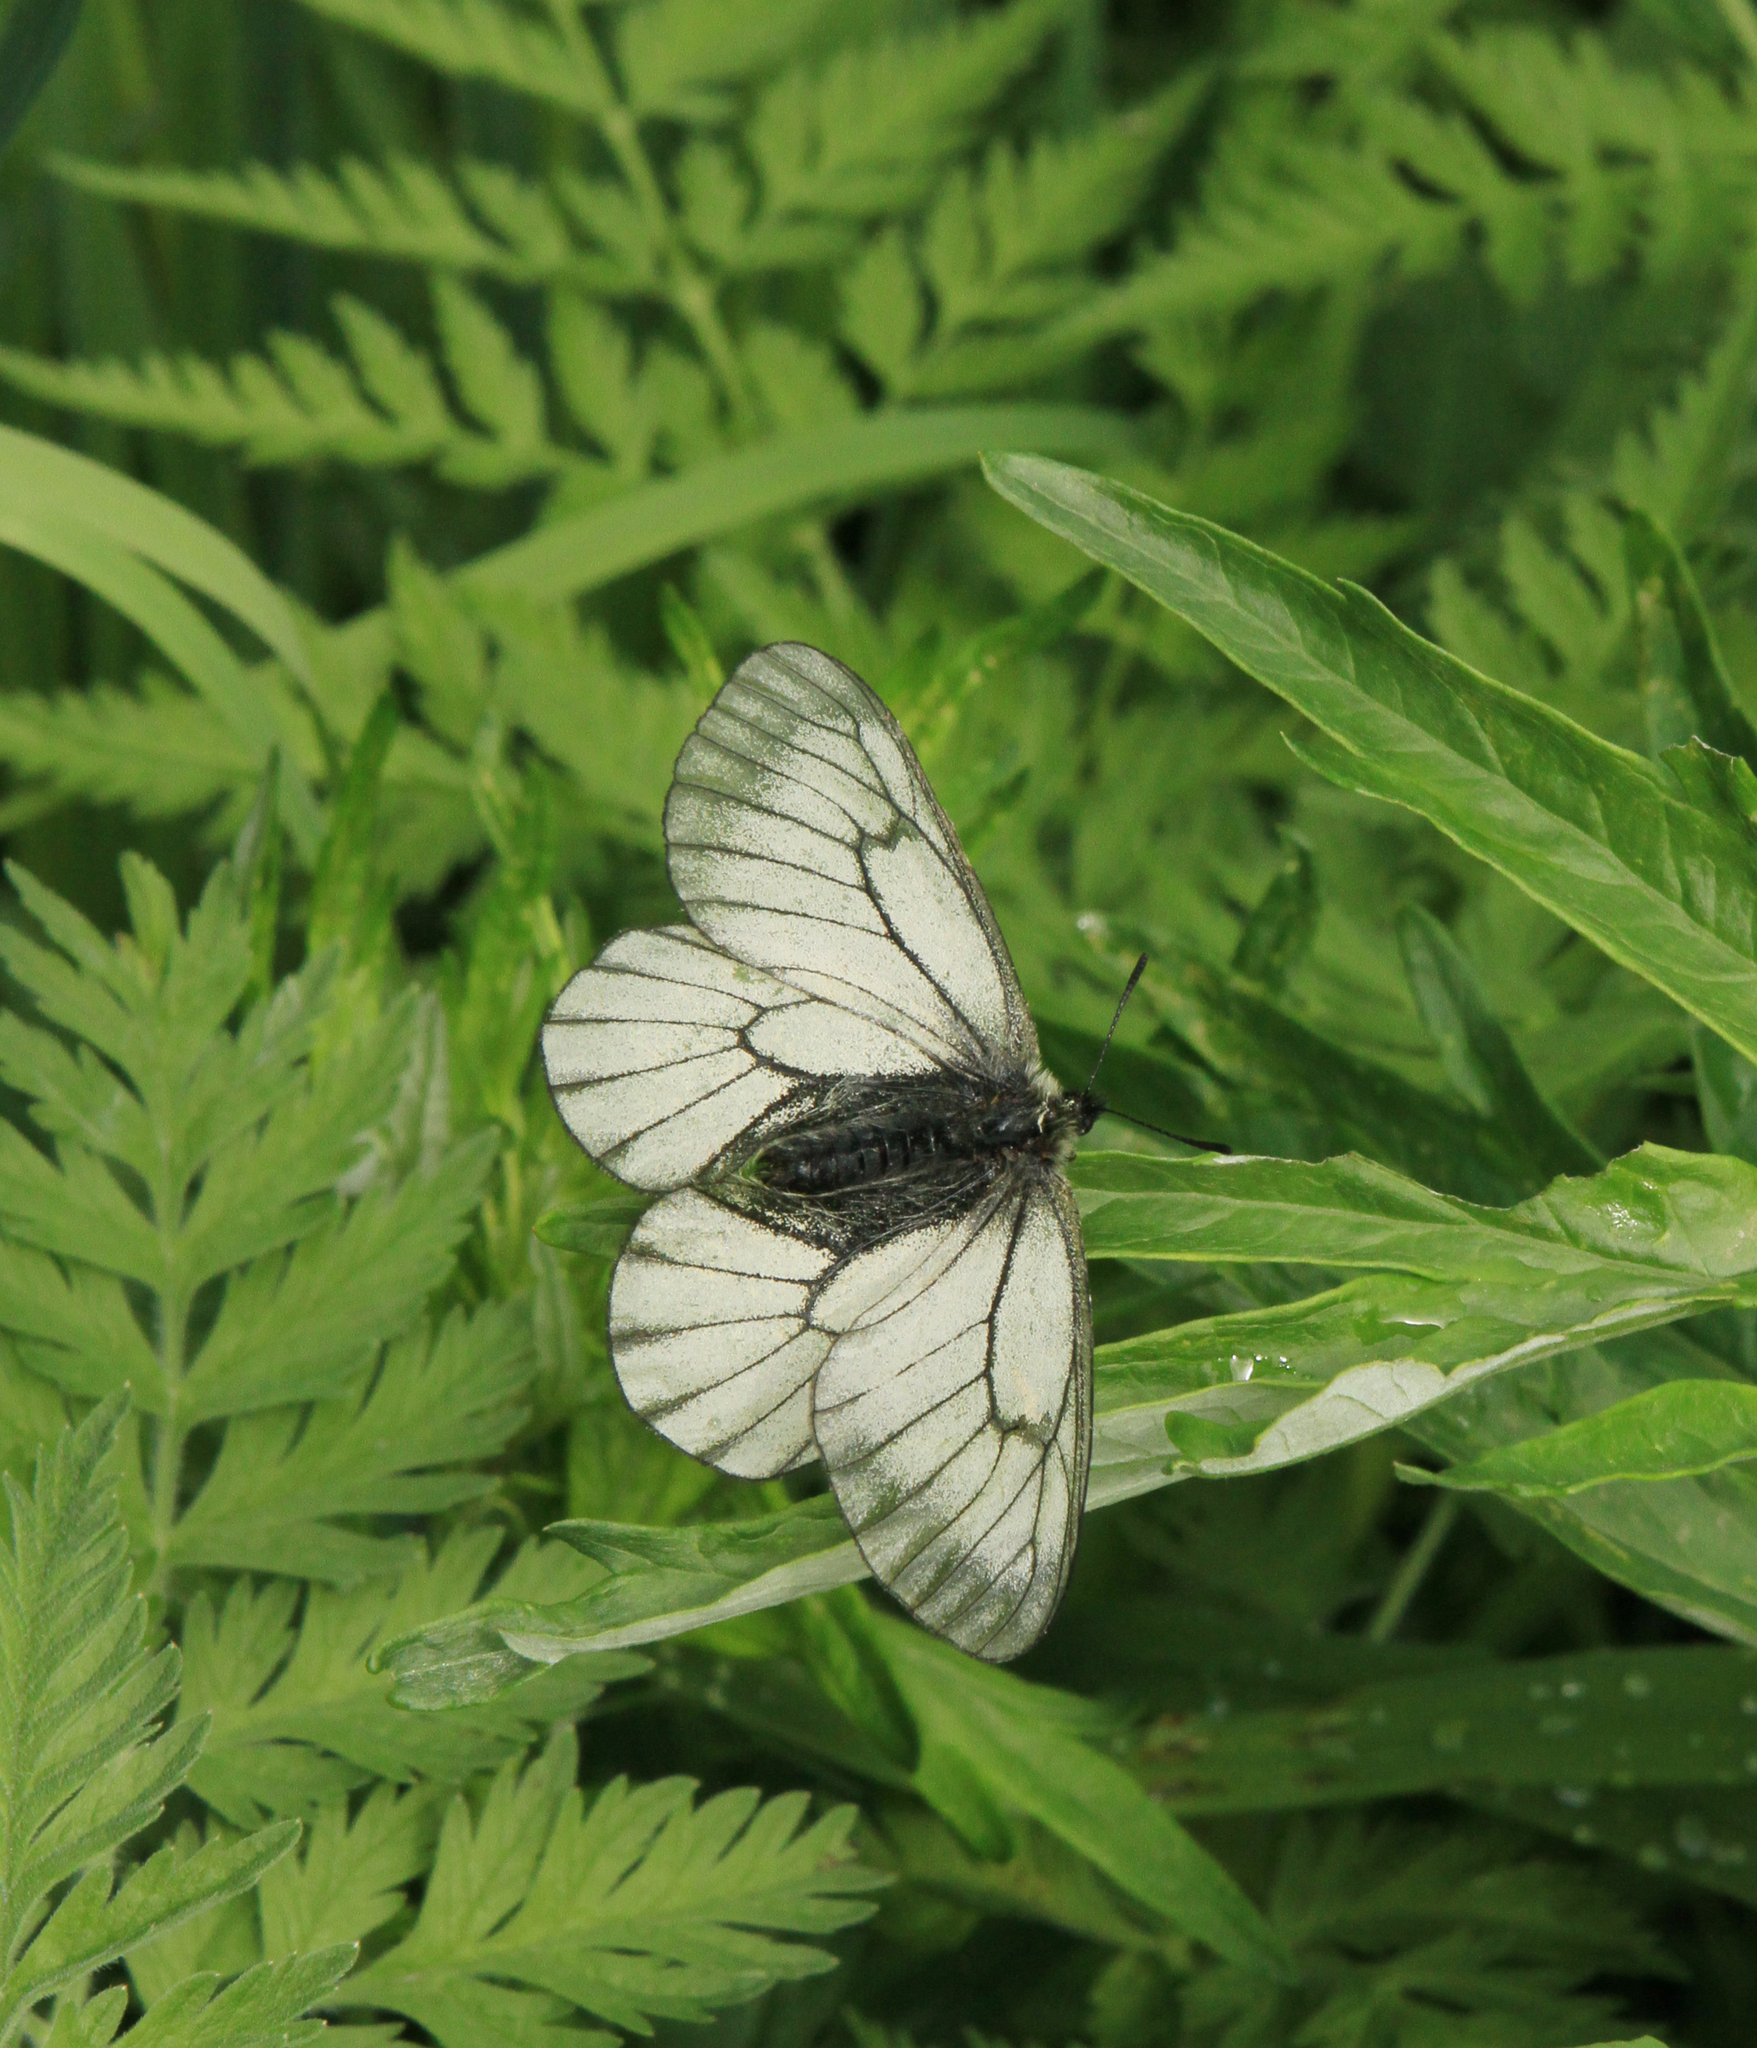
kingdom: Animalia
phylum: Arthropoda
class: Insecta
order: Lepidoptera
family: Papilionidae
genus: Parnassius
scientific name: Parnassius stubbendorfii
